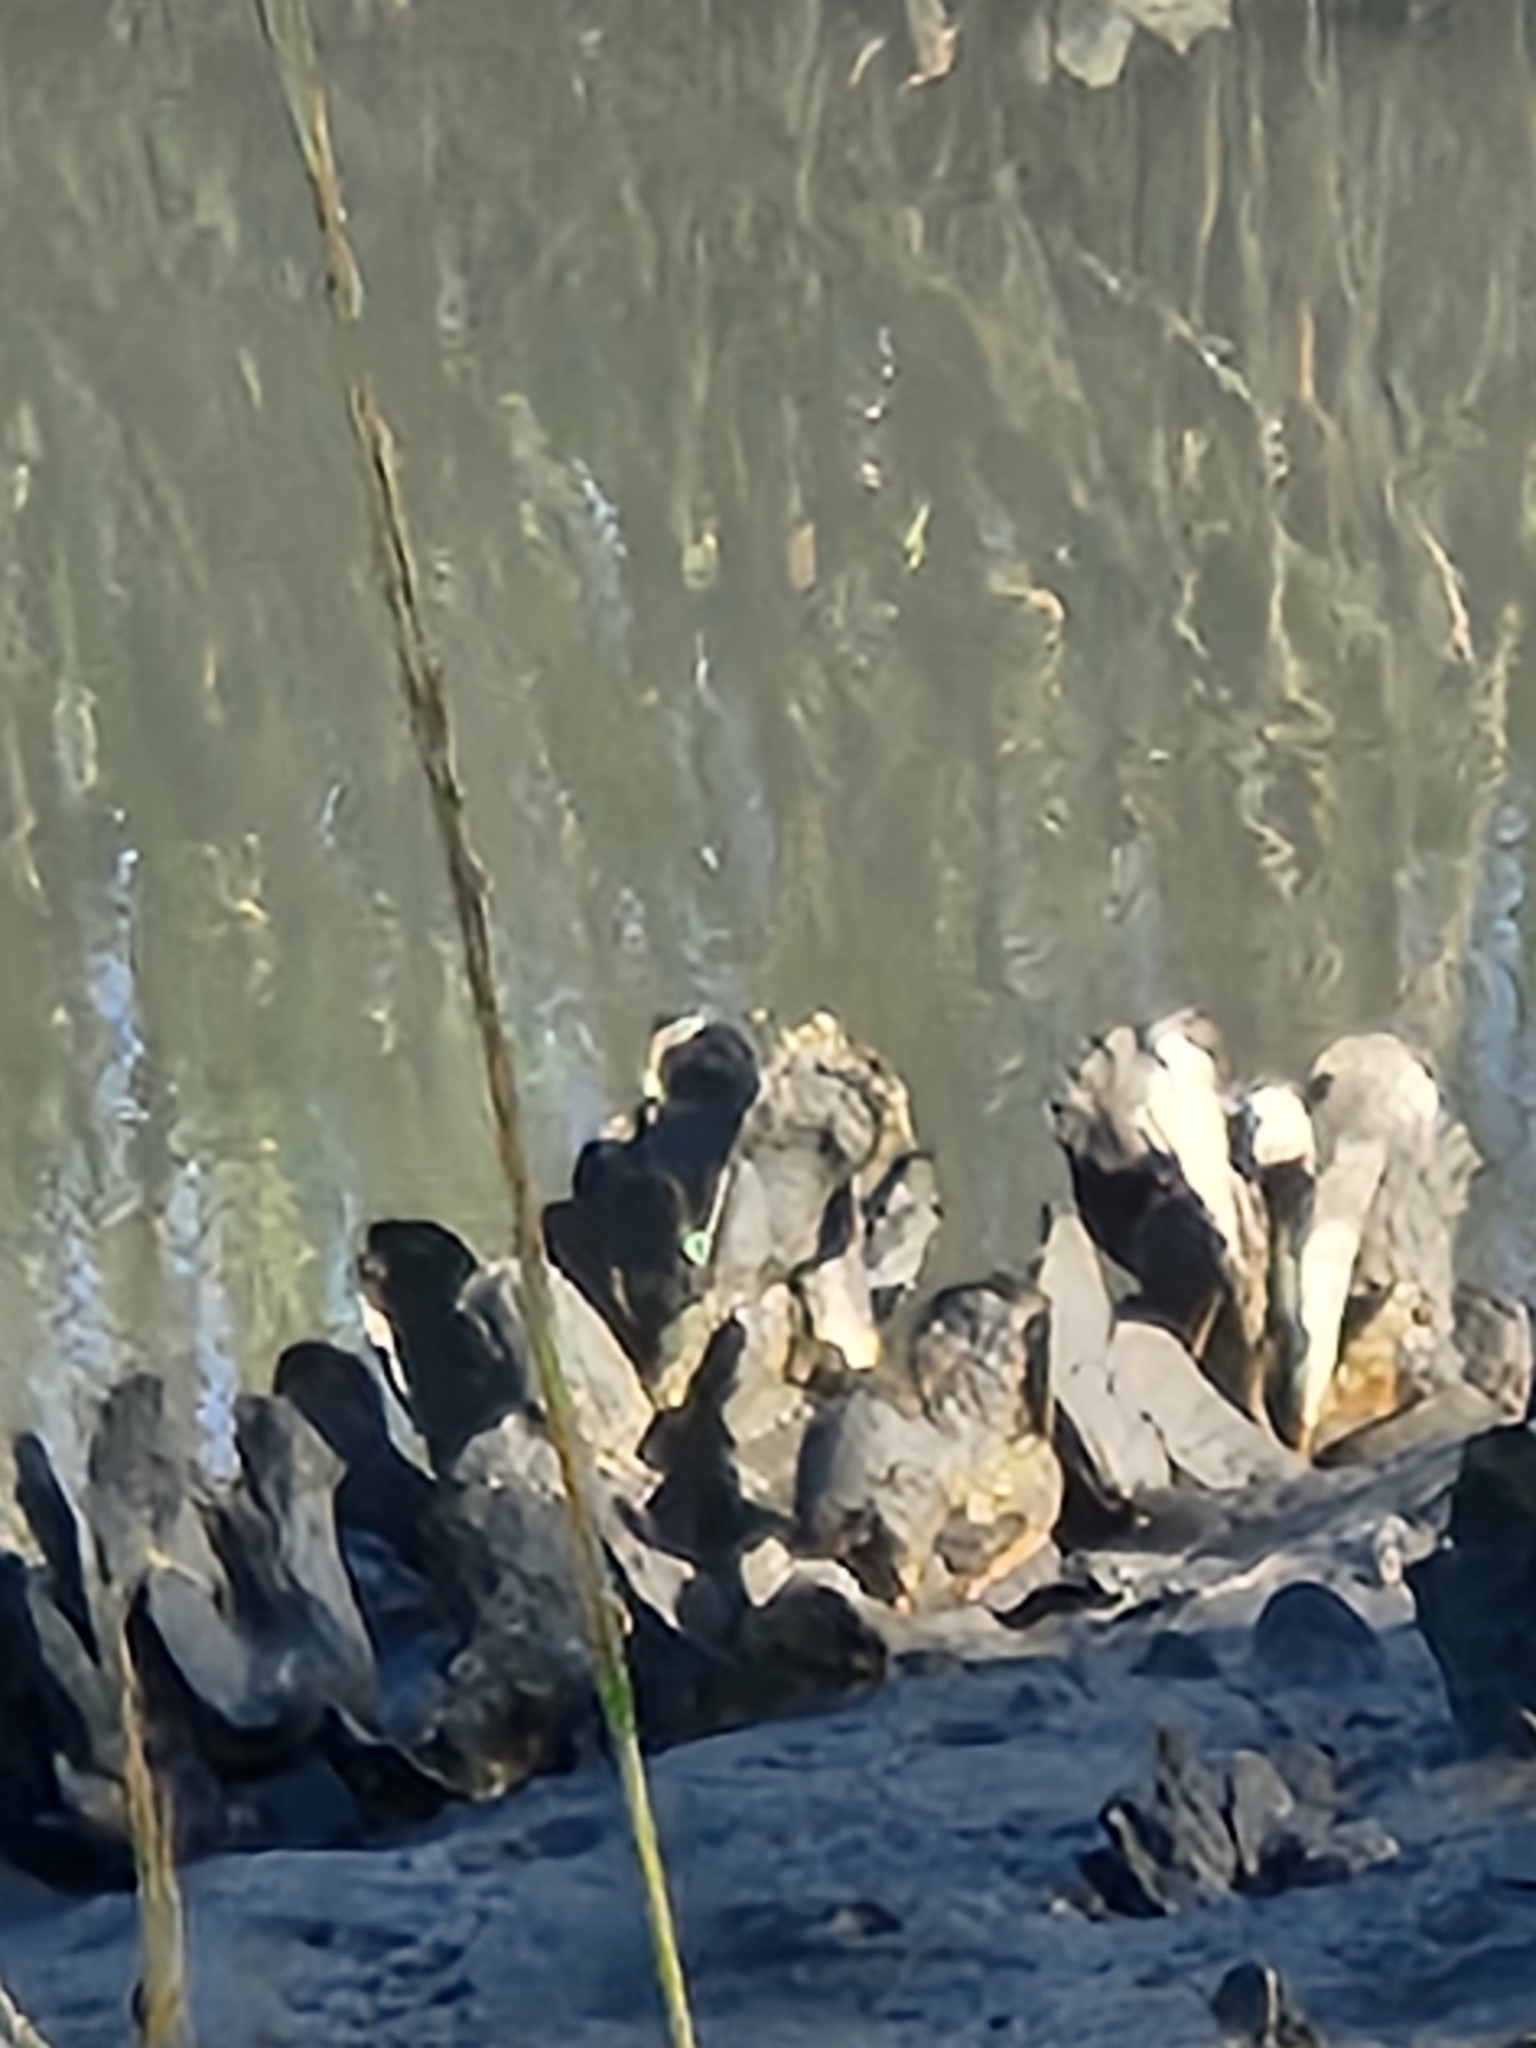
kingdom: Animalia
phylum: Mollusca
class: Bivalvia
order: Ostreida
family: Ostreidae
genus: Crassostrea
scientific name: Crassostrea virginica
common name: American oyster
